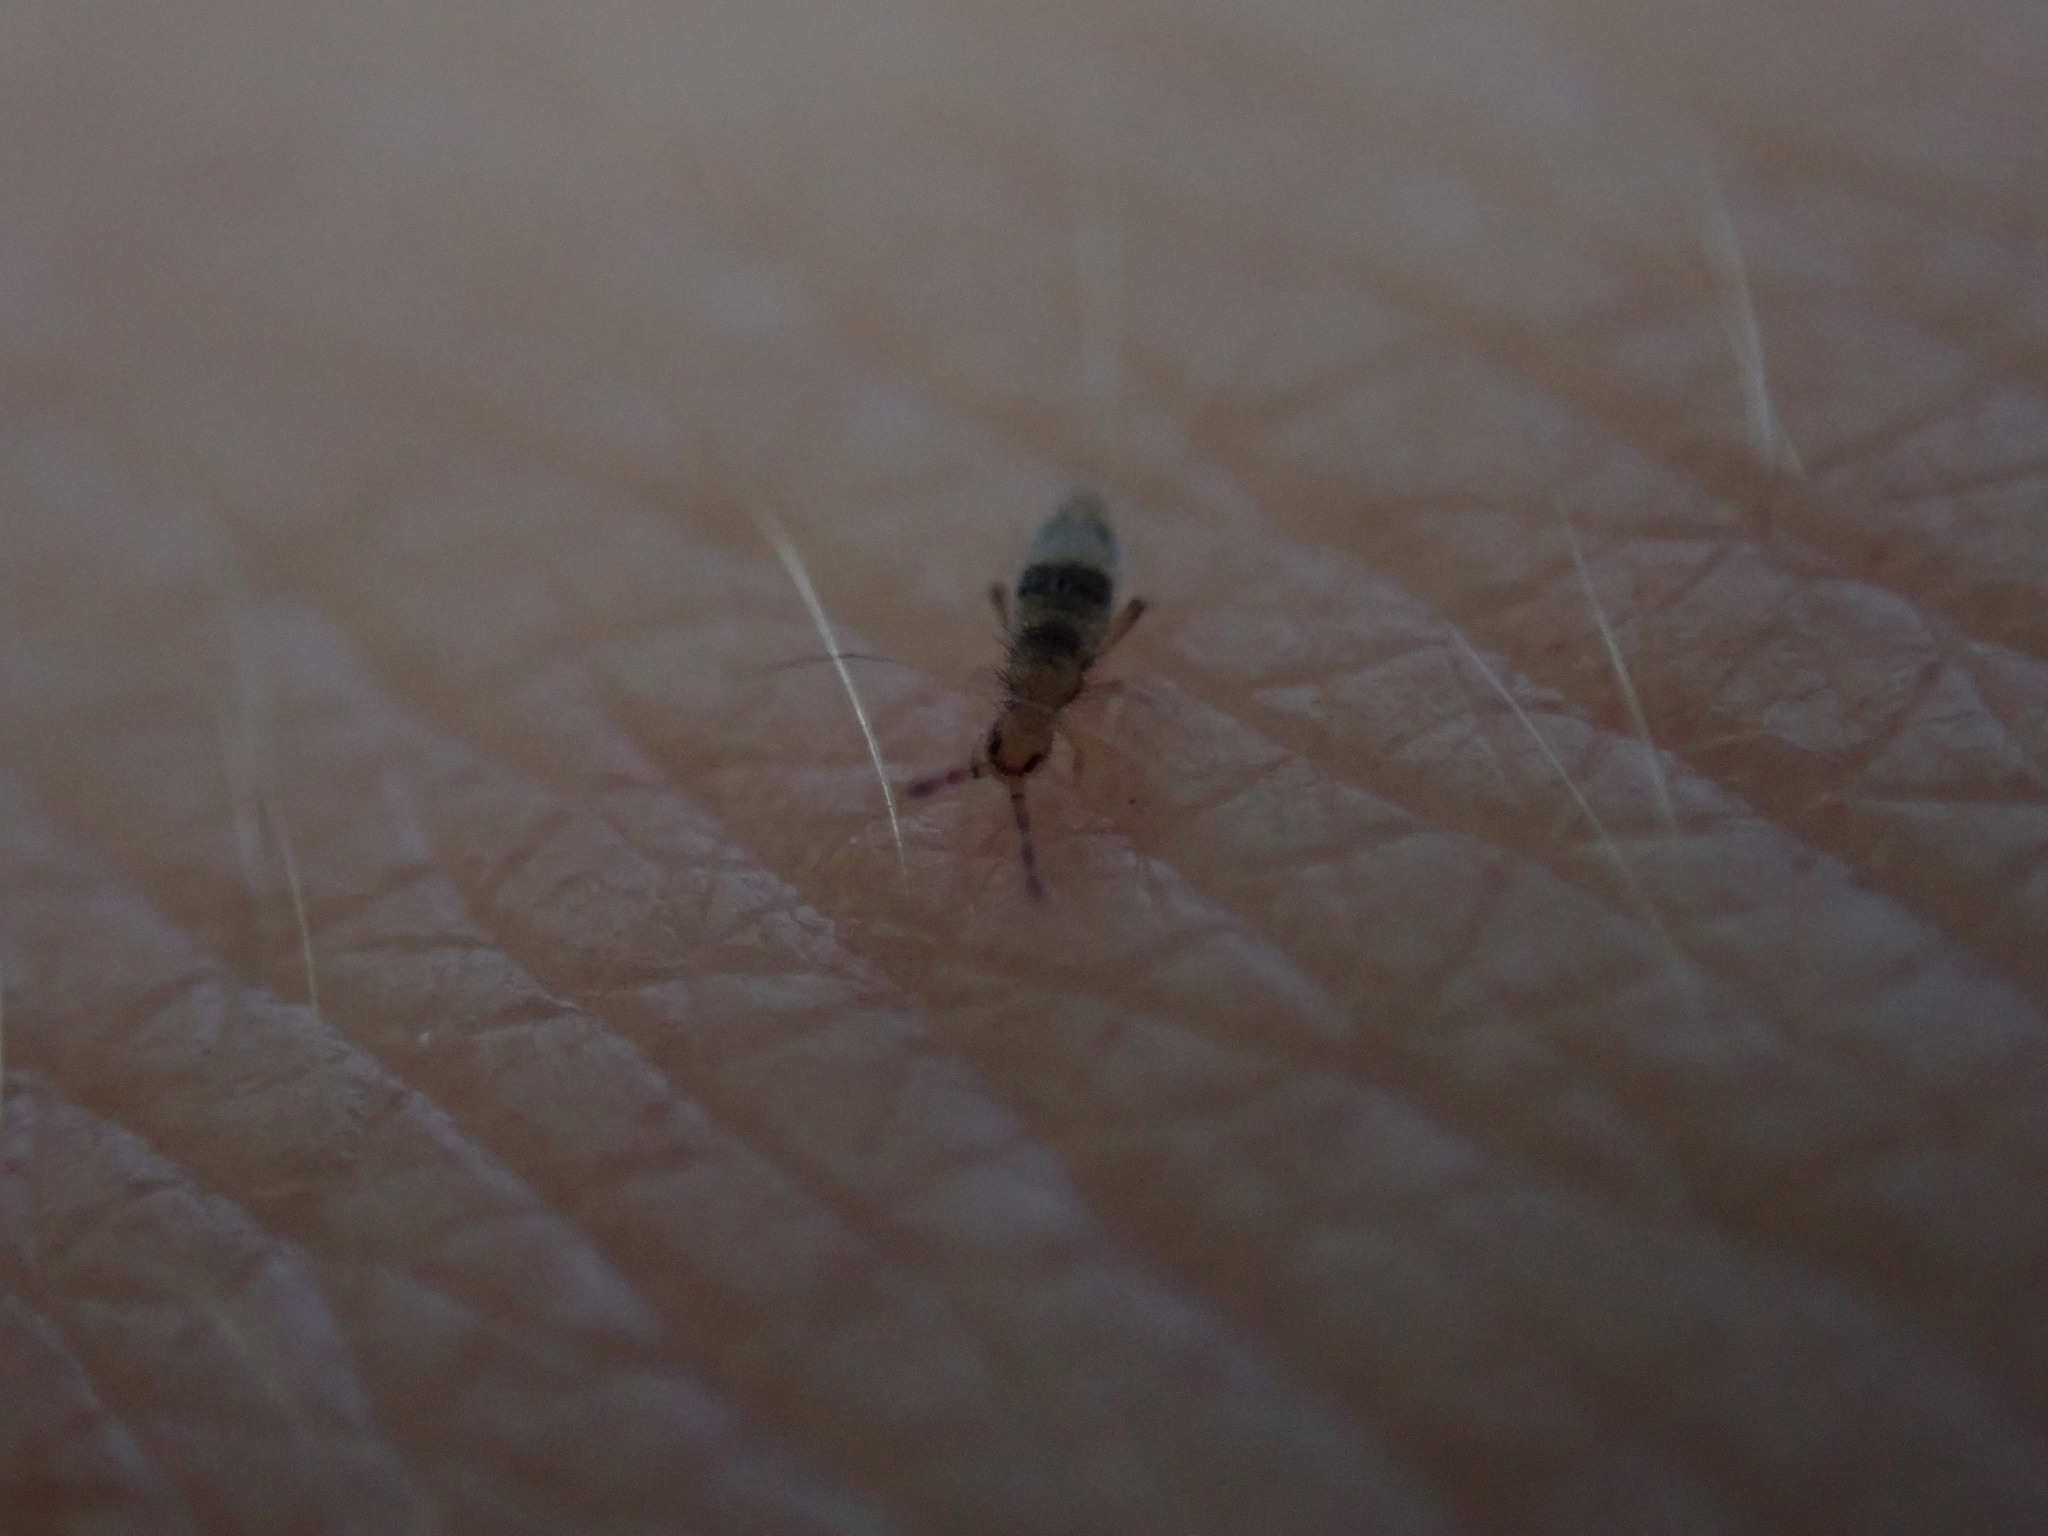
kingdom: Animalia
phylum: Arthropoda
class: Collembola
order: Entomobryomorpha
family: Entomobryidae
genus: Entomobrya
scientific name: Entomobrya triangularis
